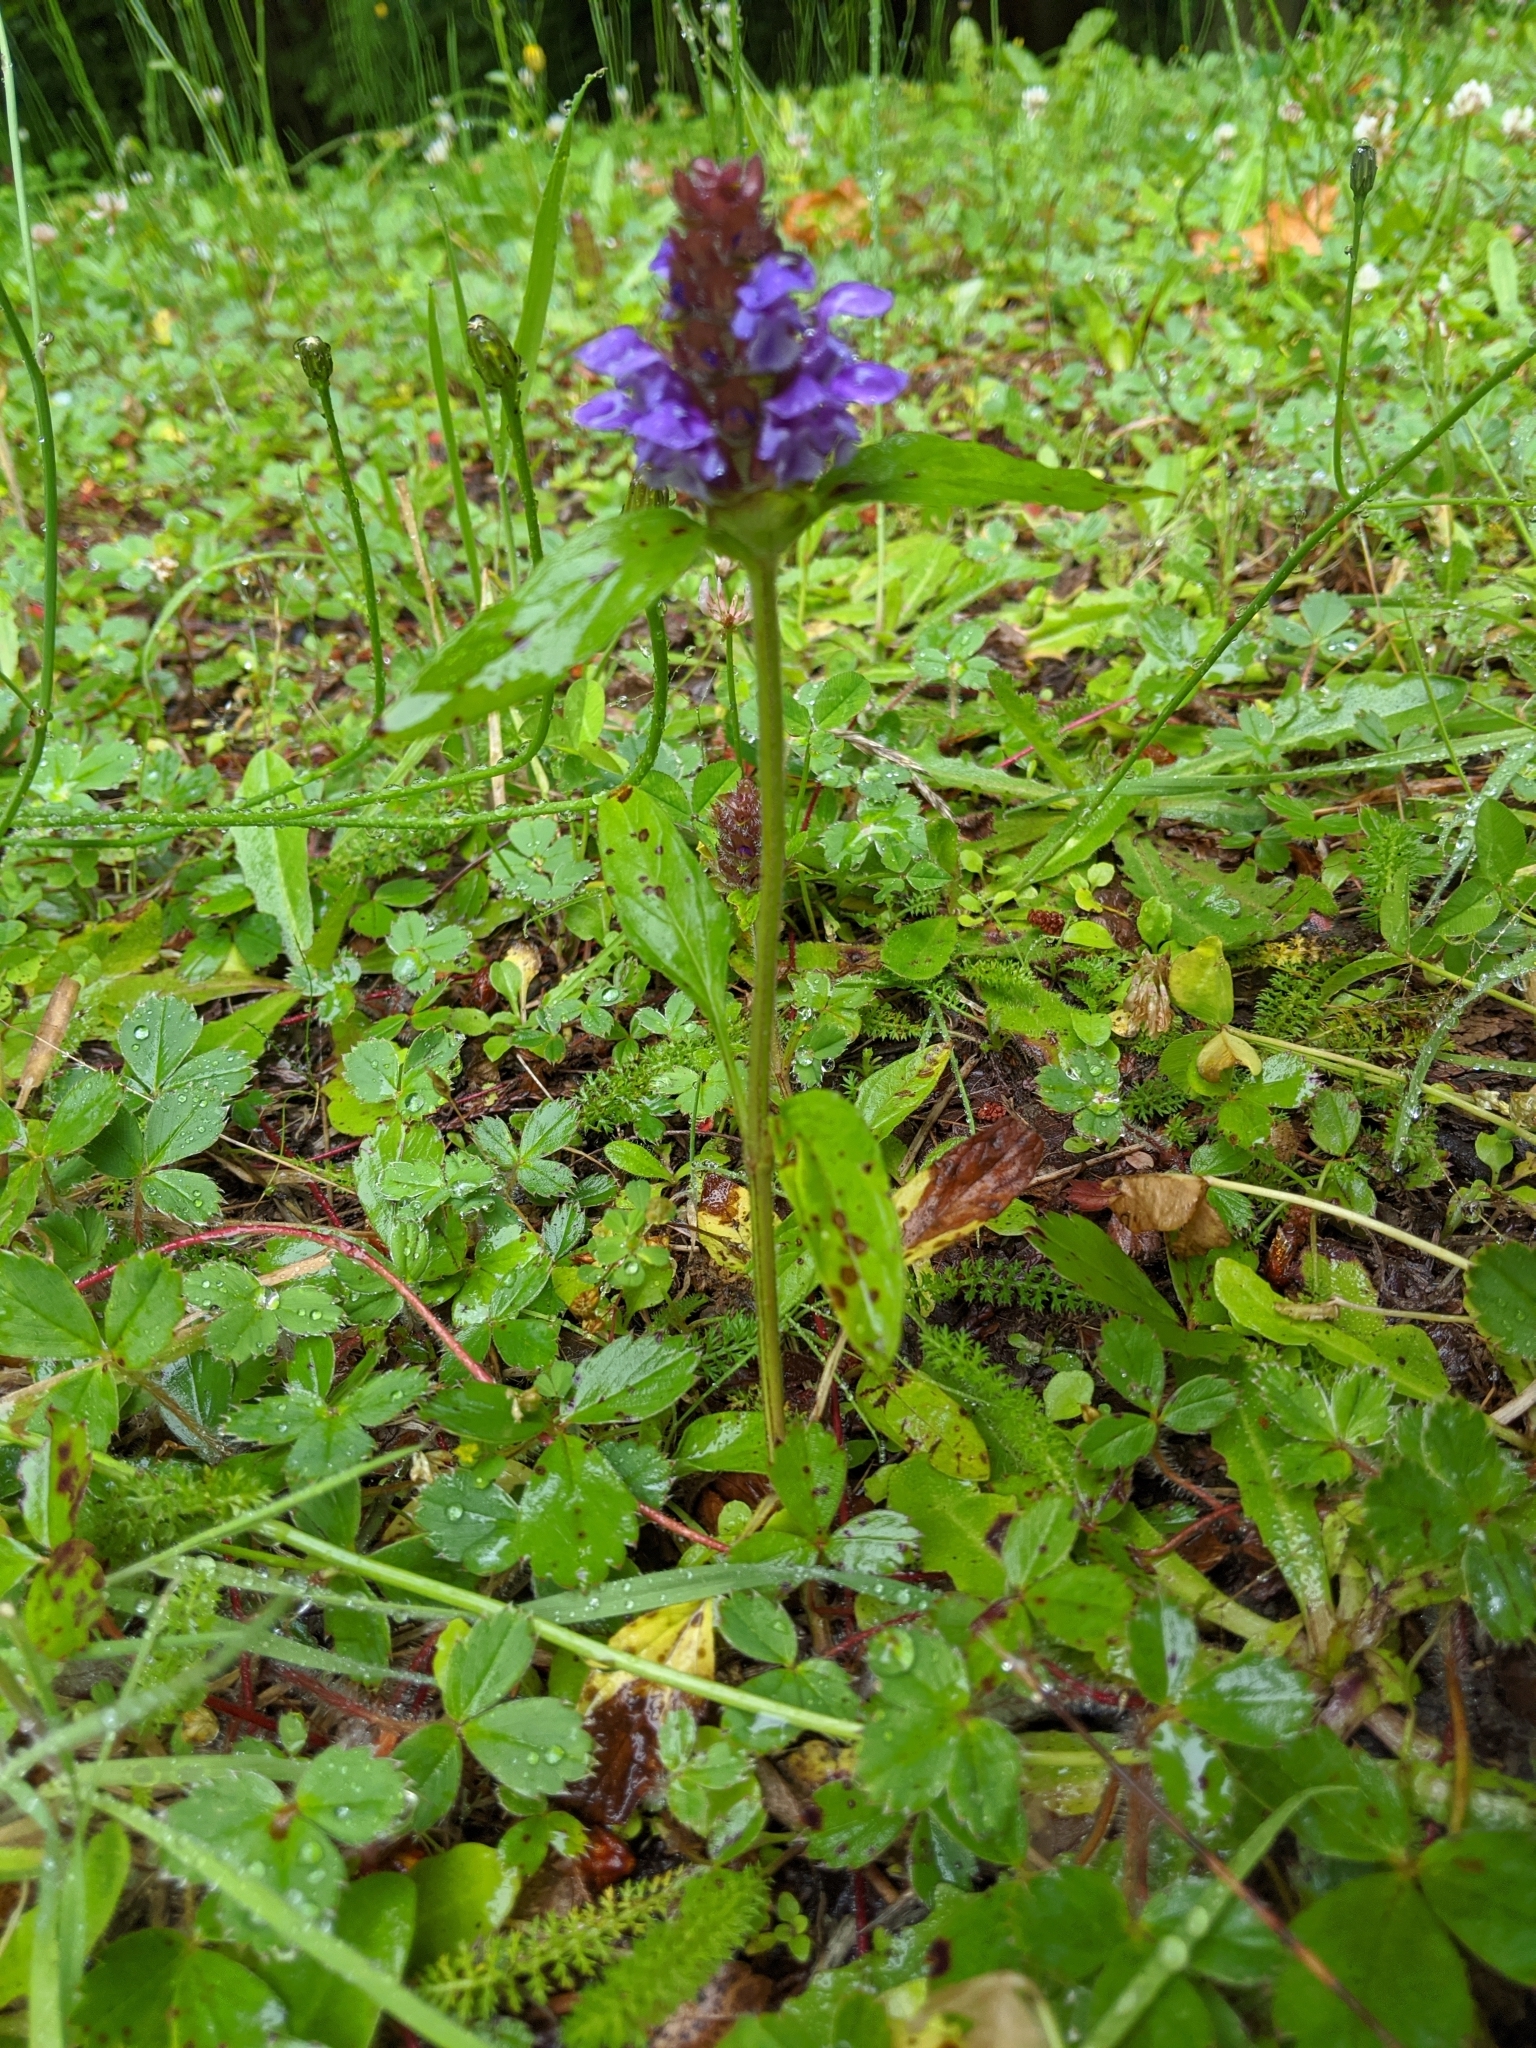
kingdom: Plantae
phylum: Tracheophyta
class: Magnoliopsida
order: Lamiales
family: Lamiaceae
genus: Prunella
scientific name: Prunella vulgaris
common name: Heal-all
